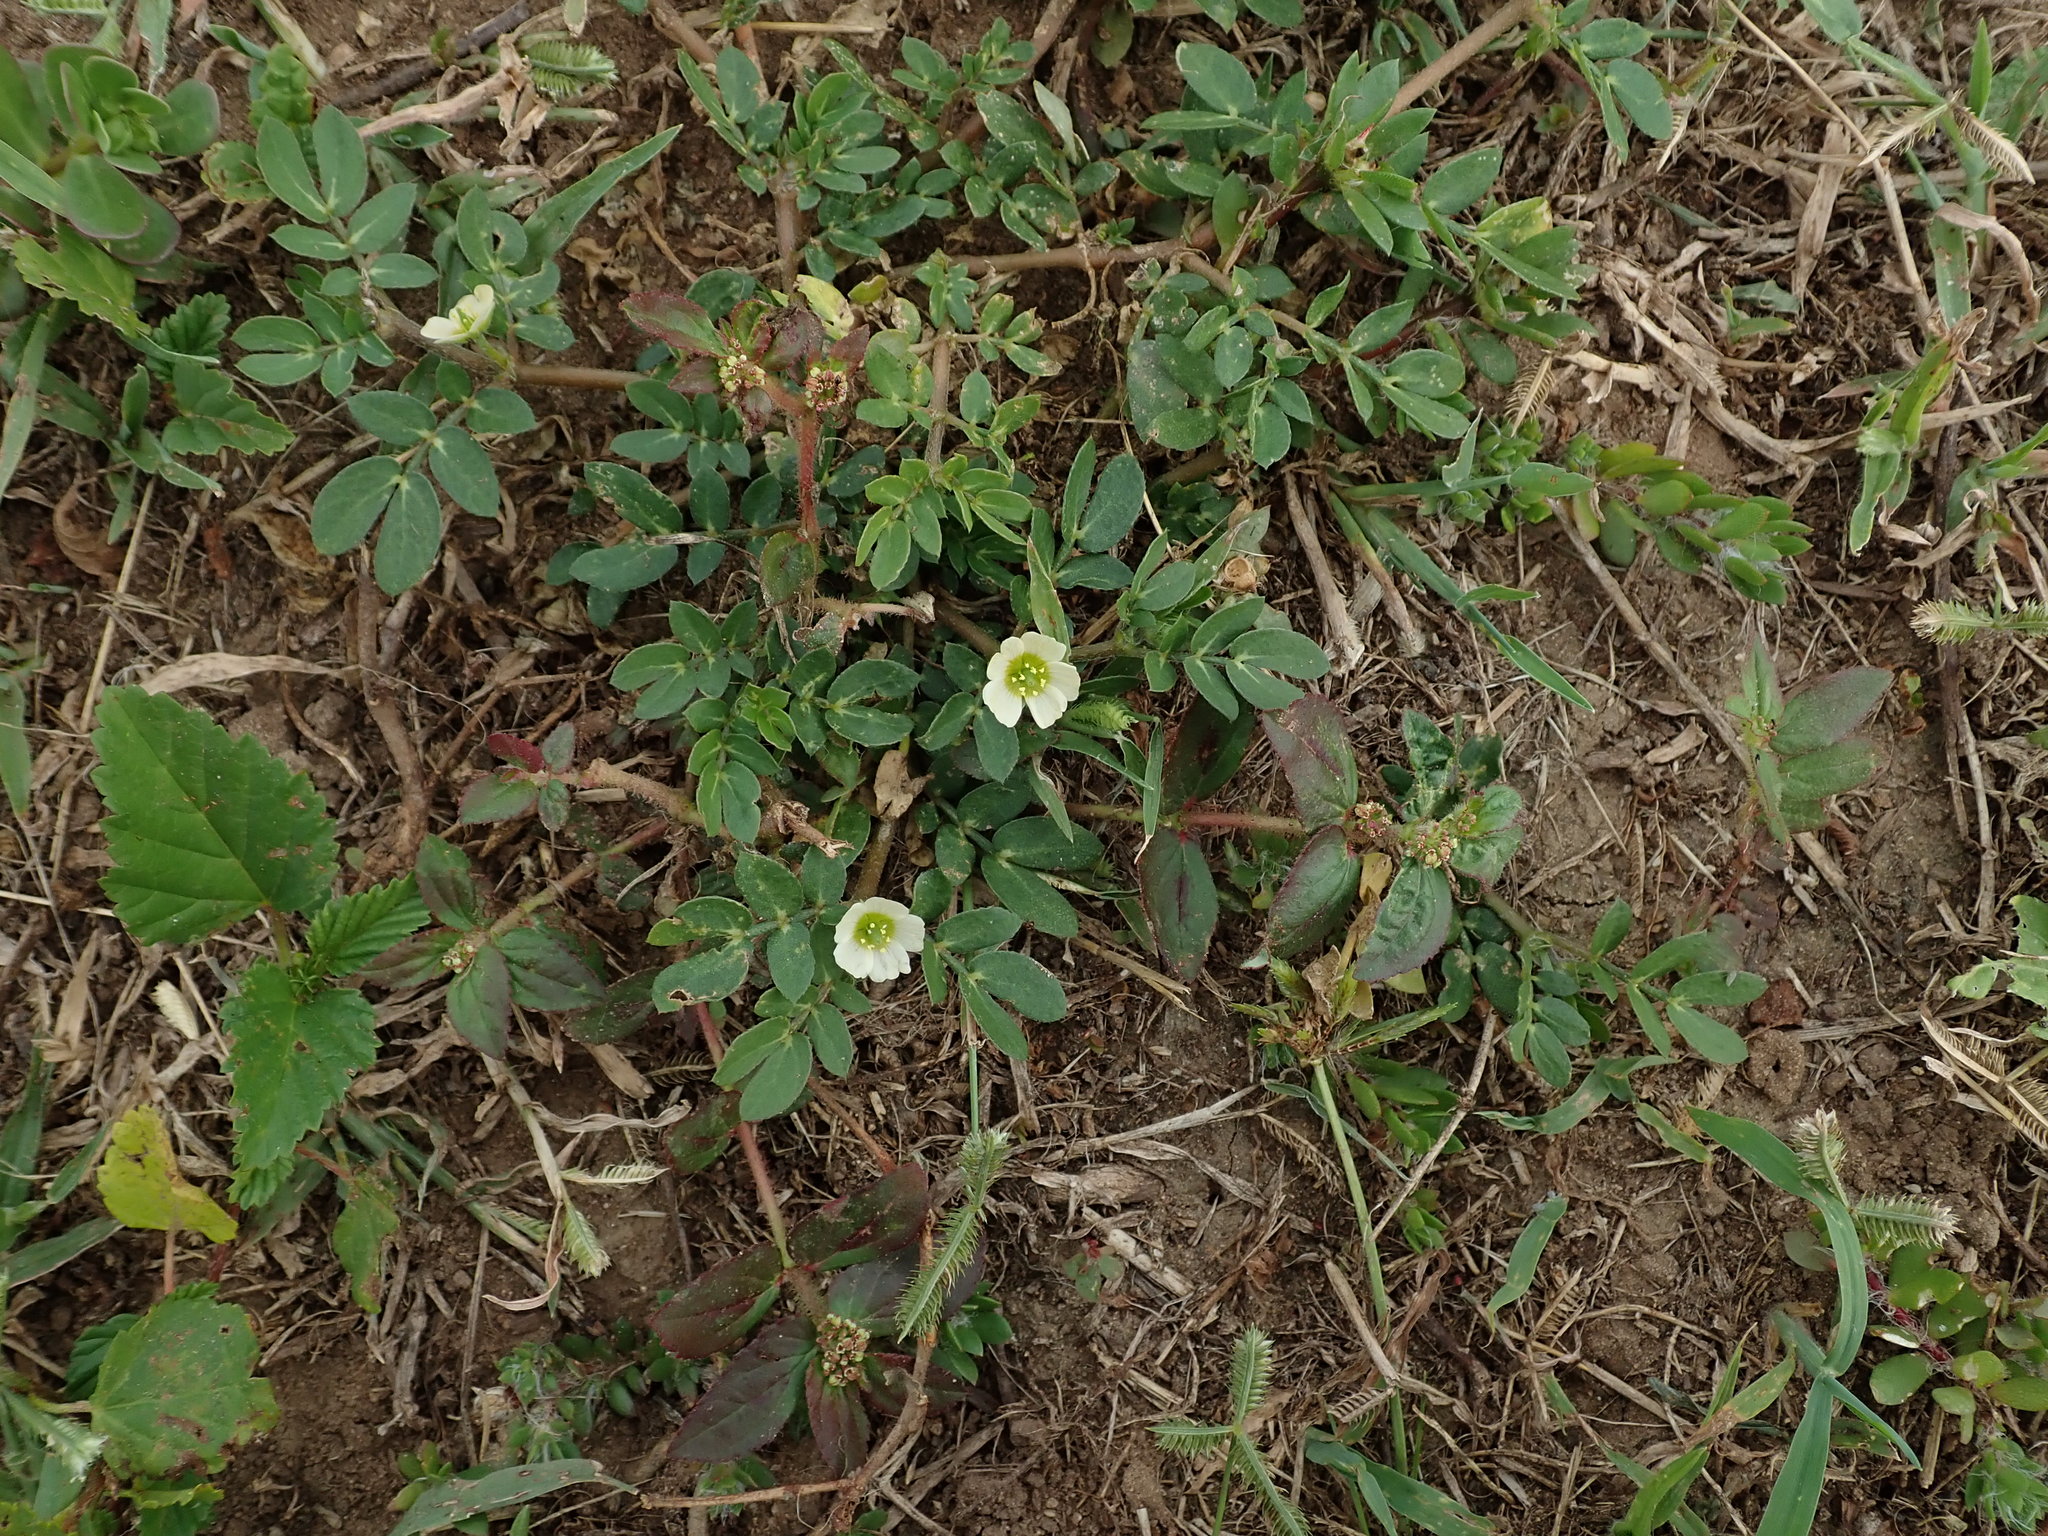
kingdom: Plantae
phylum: Tracheophyta
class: Magnoliopsida
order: Zygophyllales
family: Zygophyllaceae
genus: Kallstroemia
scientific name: Kallstroemia maxima
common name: Big caltropa
